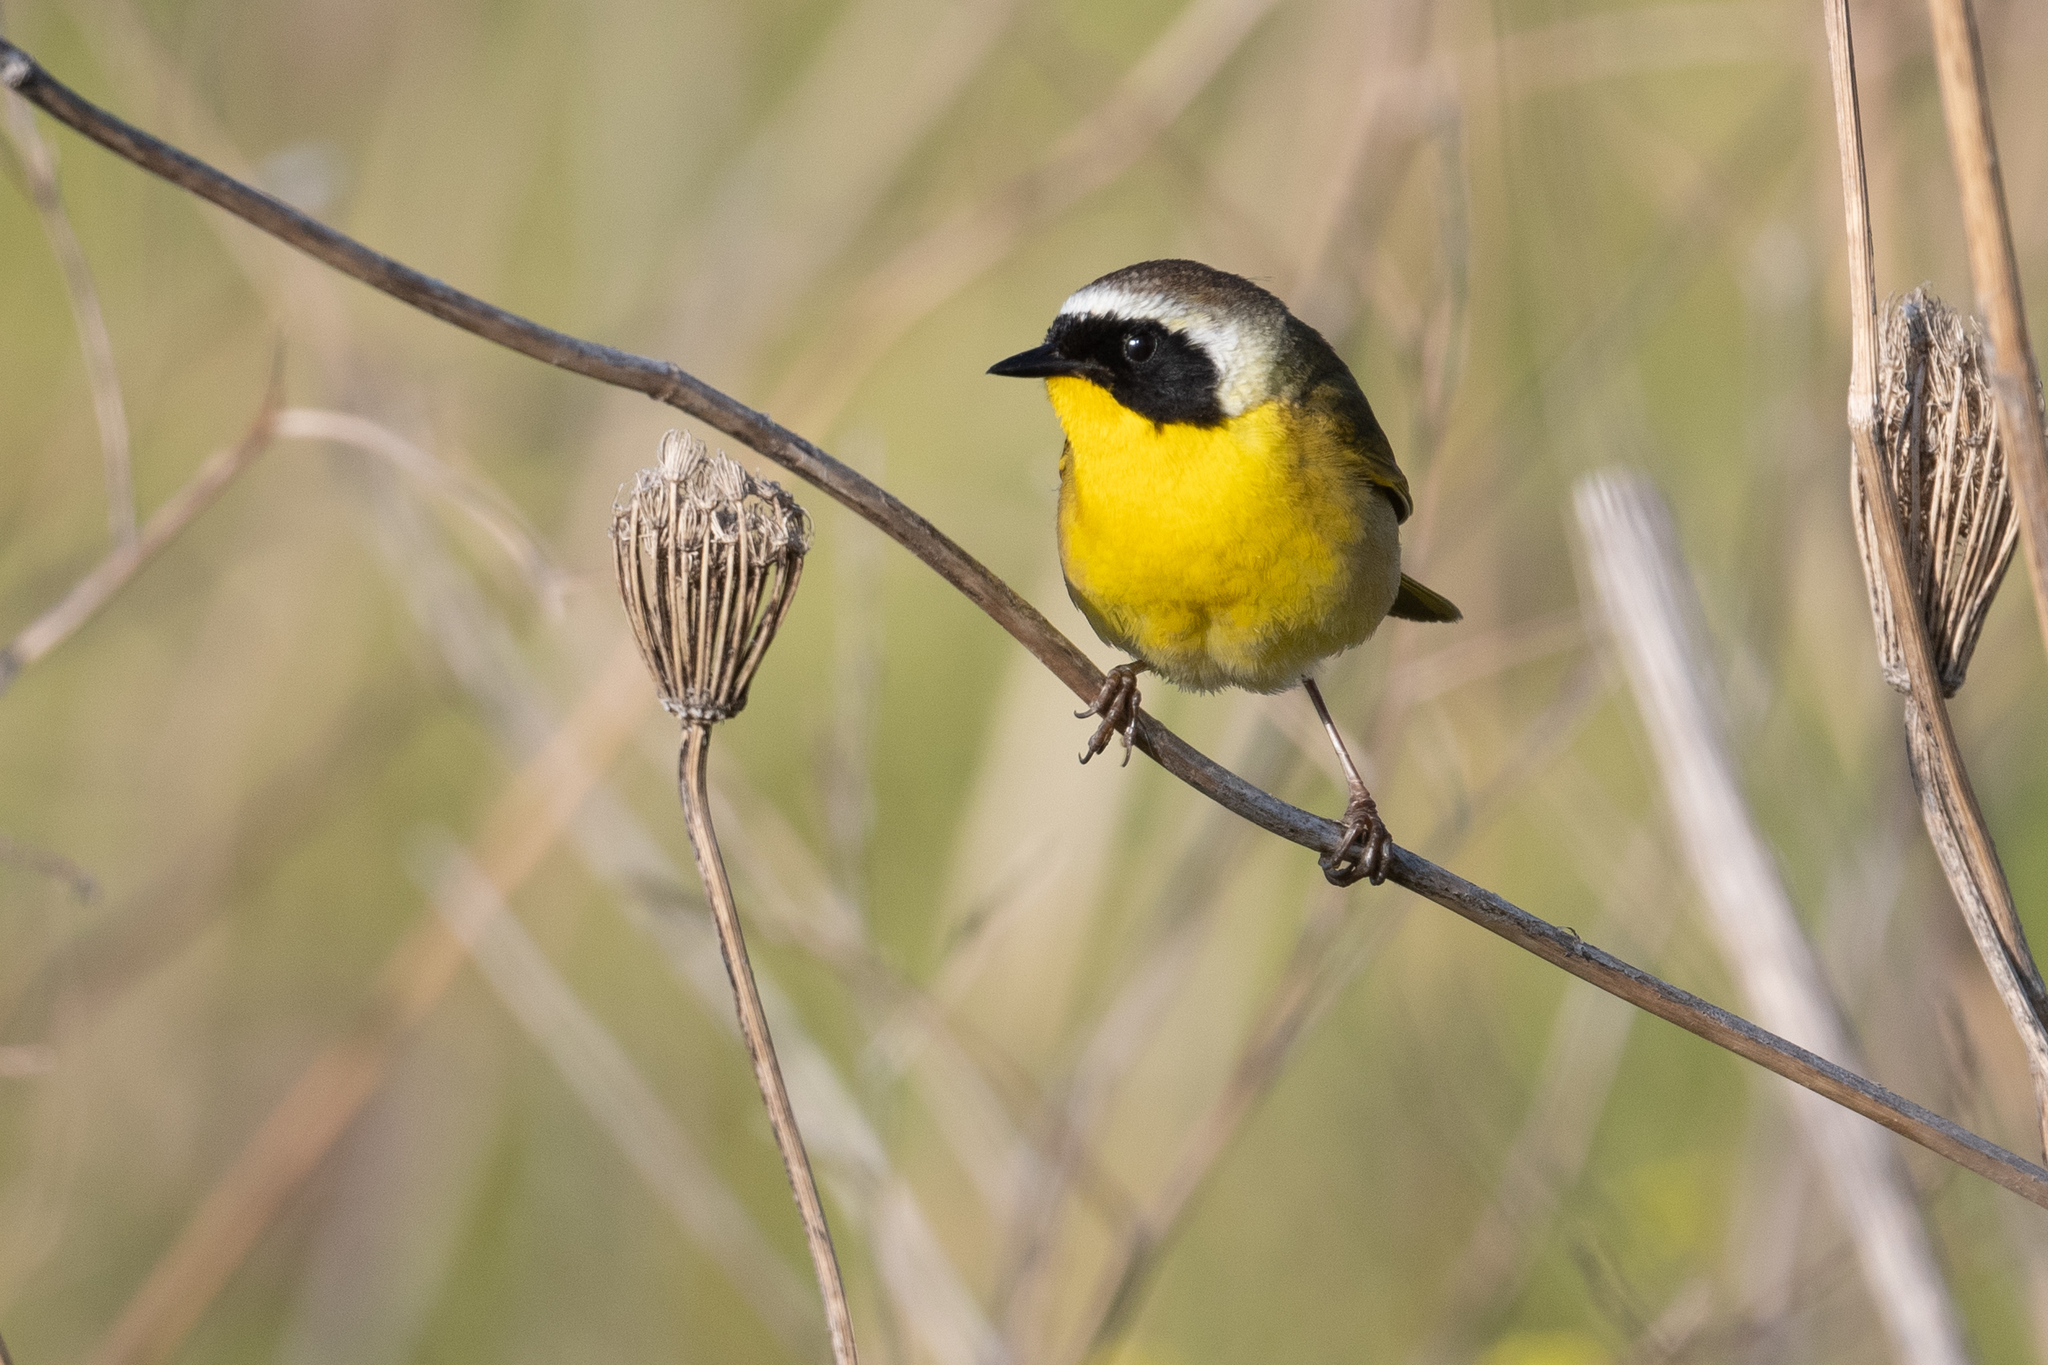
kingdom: Animalia
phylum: Chordata
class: Aves
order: Passeriformes
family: Parulidae
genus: Geothlypis
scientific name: Geothlypis trichas
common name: Common yellowthroat
